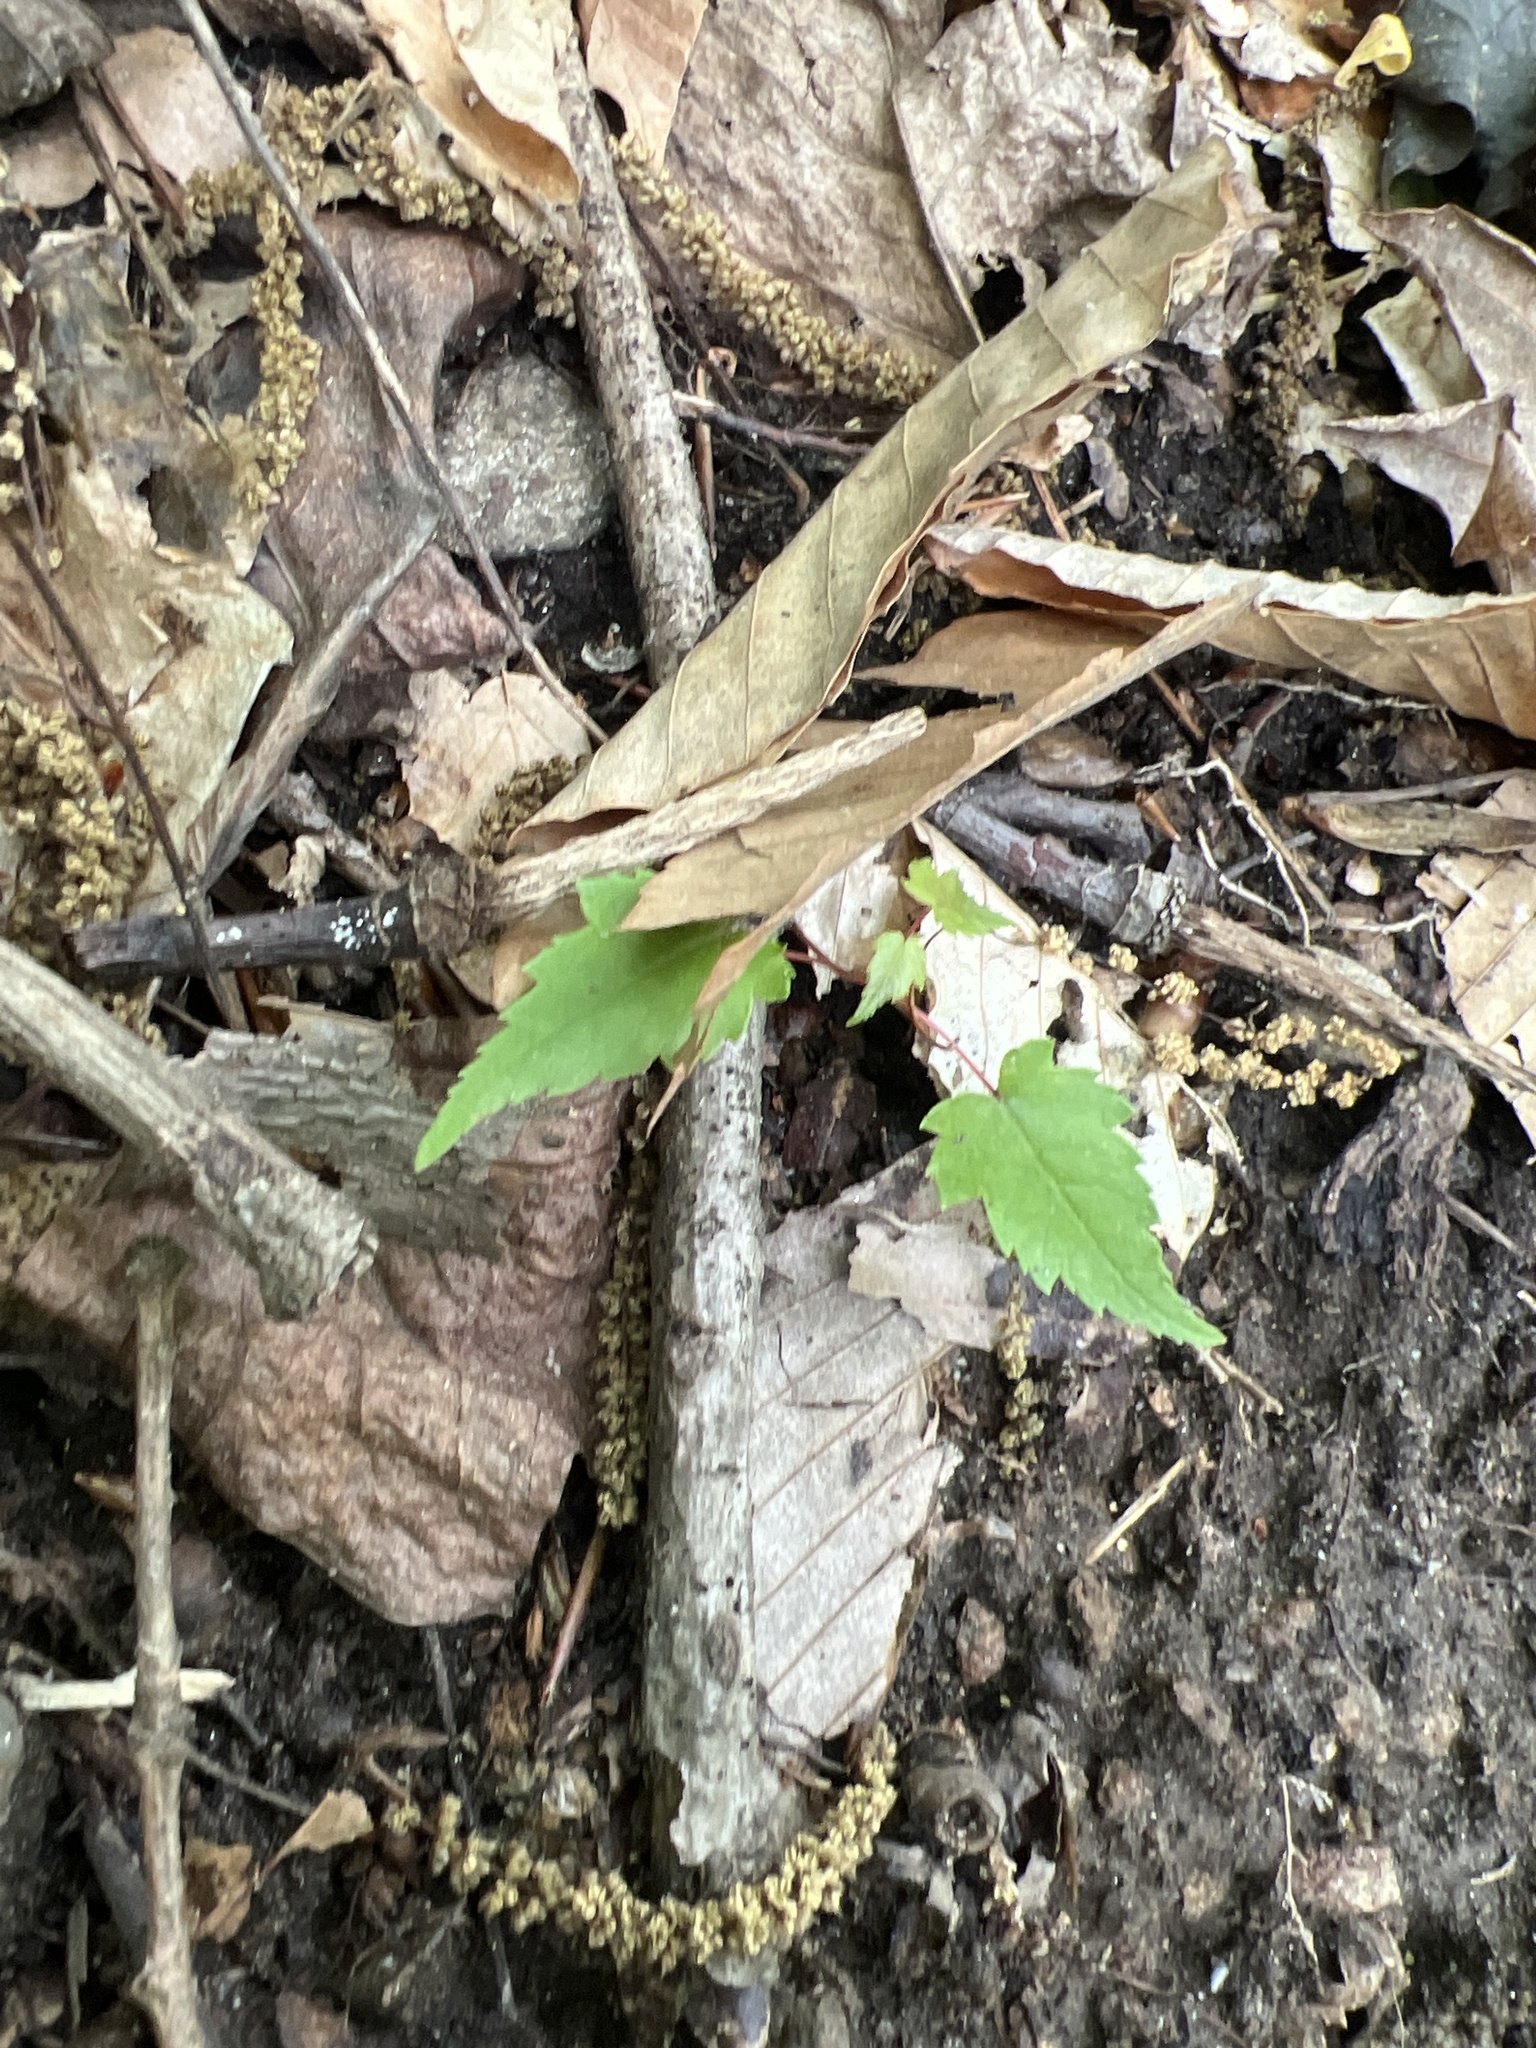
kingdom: Plantae
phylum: Tracheophyta
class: Magnoliopsida
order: Sapindales
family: Sapindaceae
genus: Acer
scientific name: Acer rubrum
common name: Red maple
